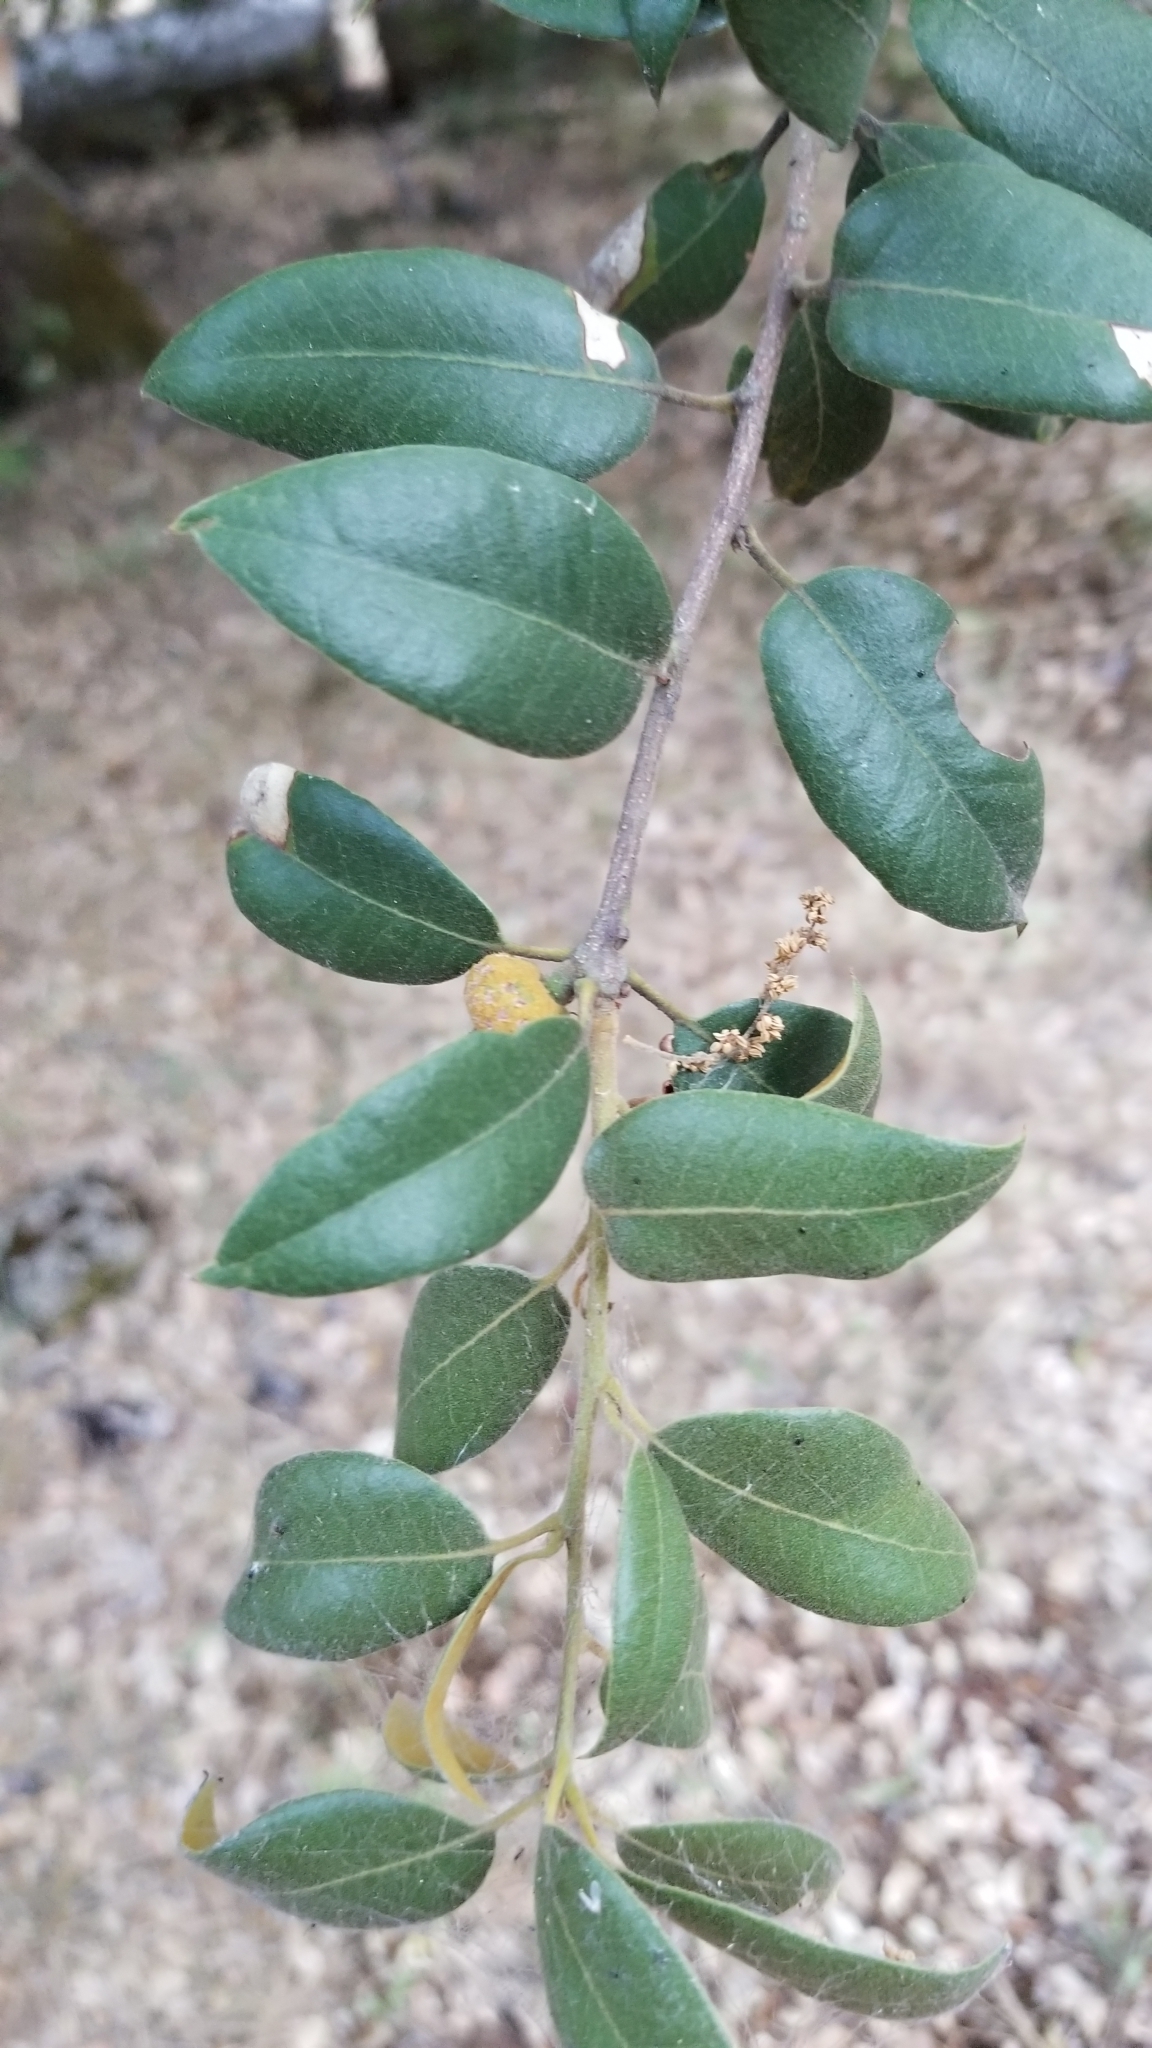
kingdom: Plantae
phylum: Tracheophyta
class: Magnoliopsida
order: Fagales
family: Fagaceae
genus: Quercus
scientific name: Quercus chrysolepis
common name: Canyon live oak
